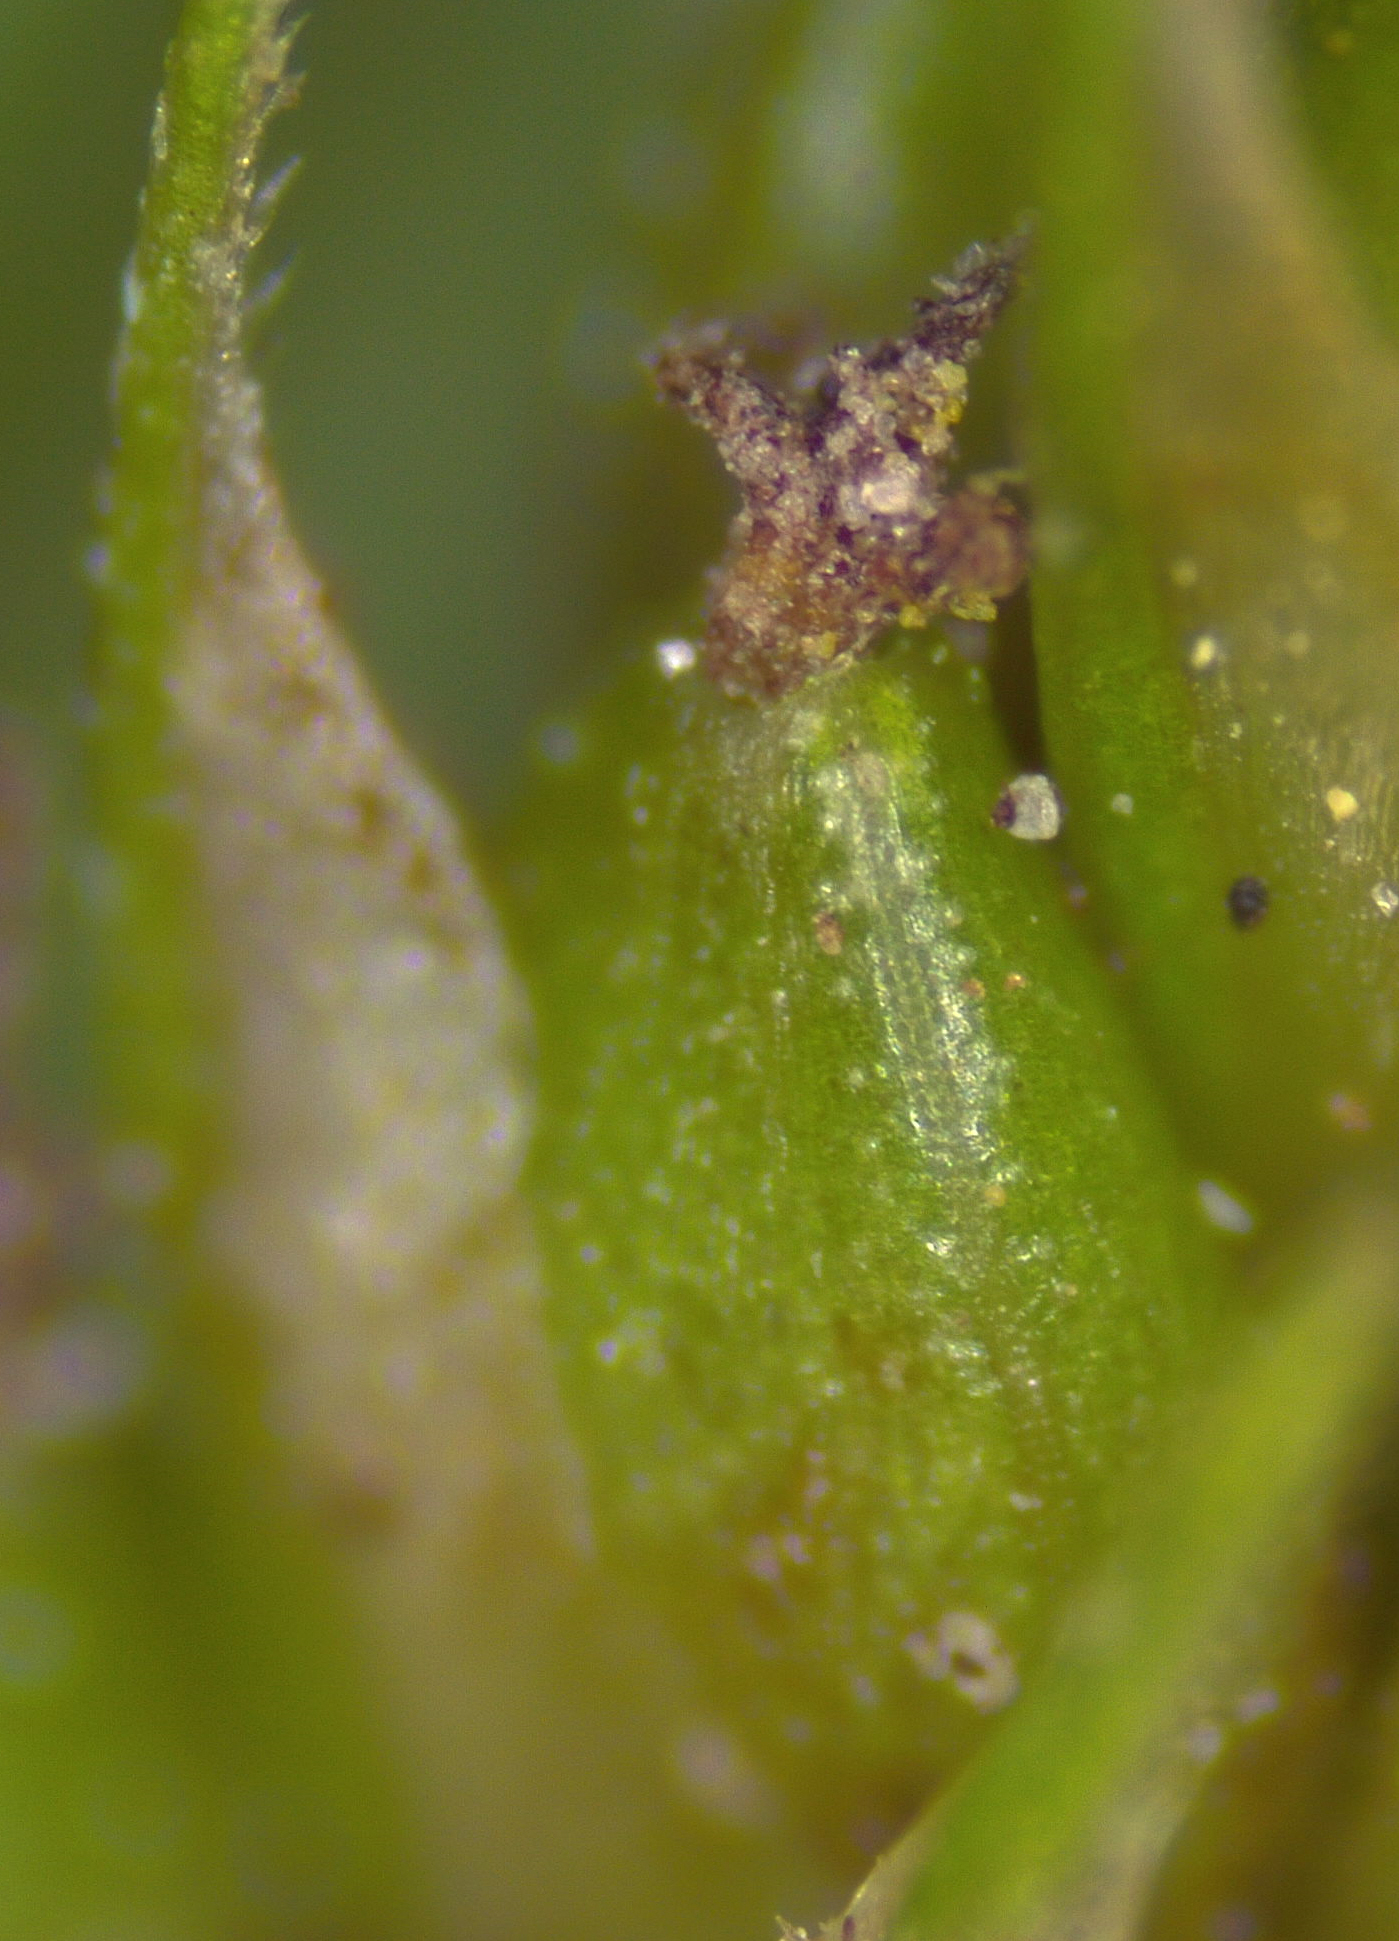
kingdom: Plantae
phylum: Tracheophyta
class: Liliopsida
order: Poales
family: Cyperaceae
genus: Carex
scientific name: Carex bushii
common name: Bush's sedge
